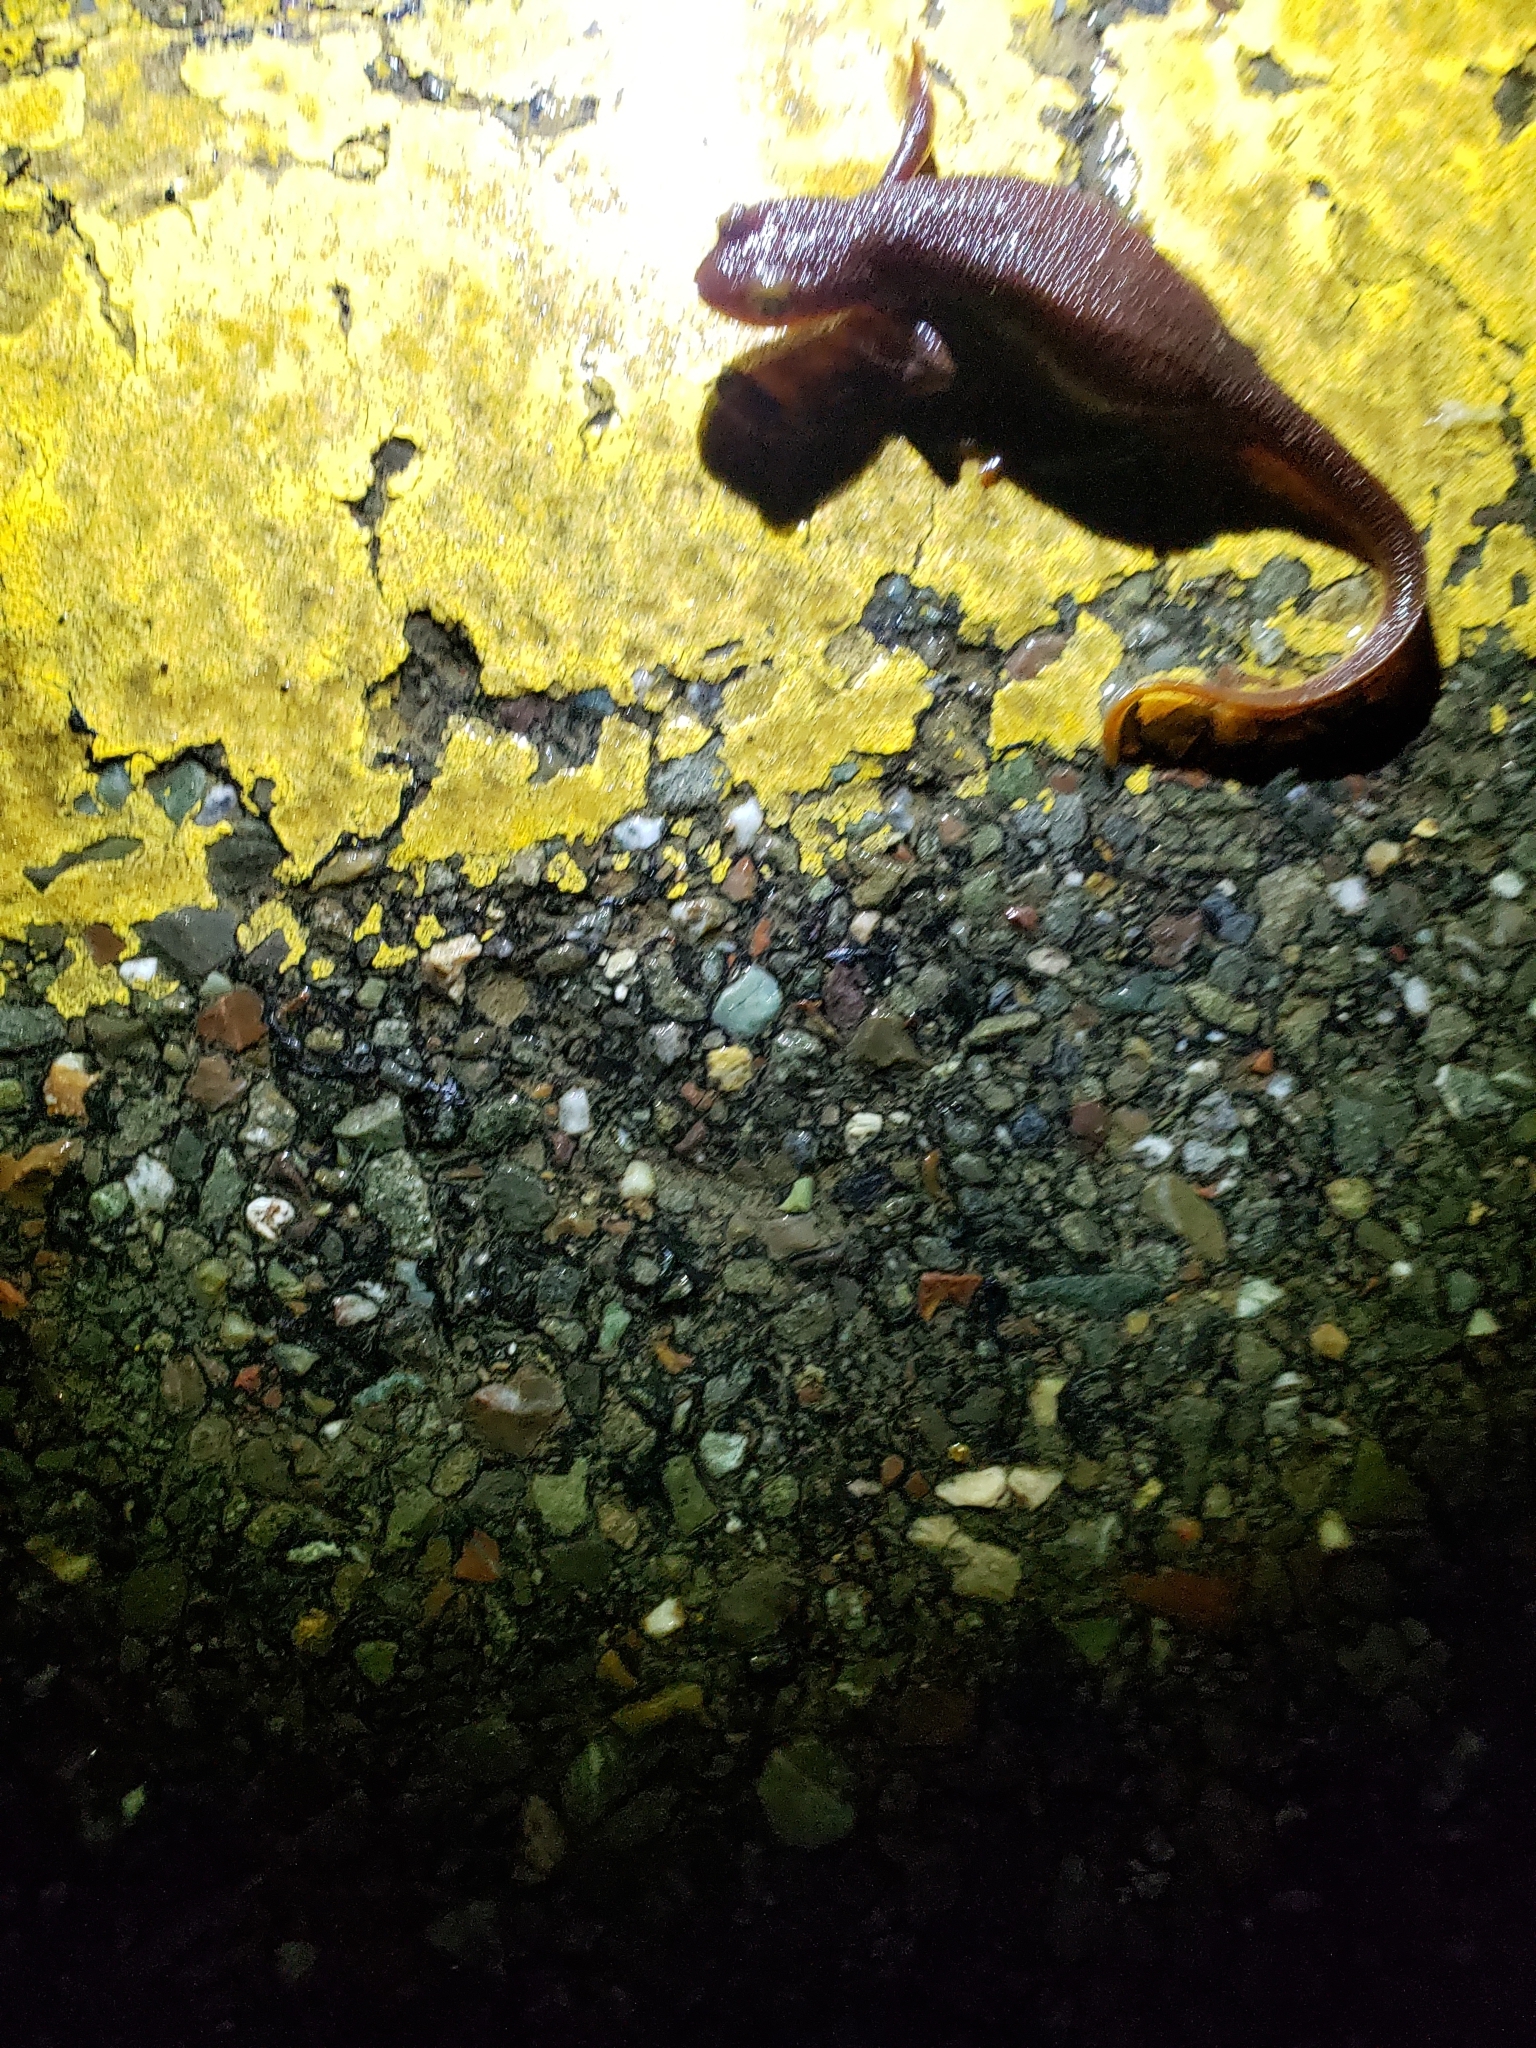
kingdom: Animalia
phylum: Chordata
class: Amphibia
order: Caudata
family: Salamandridae
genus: Taricha
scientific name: Taricha torosa
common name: California newt
